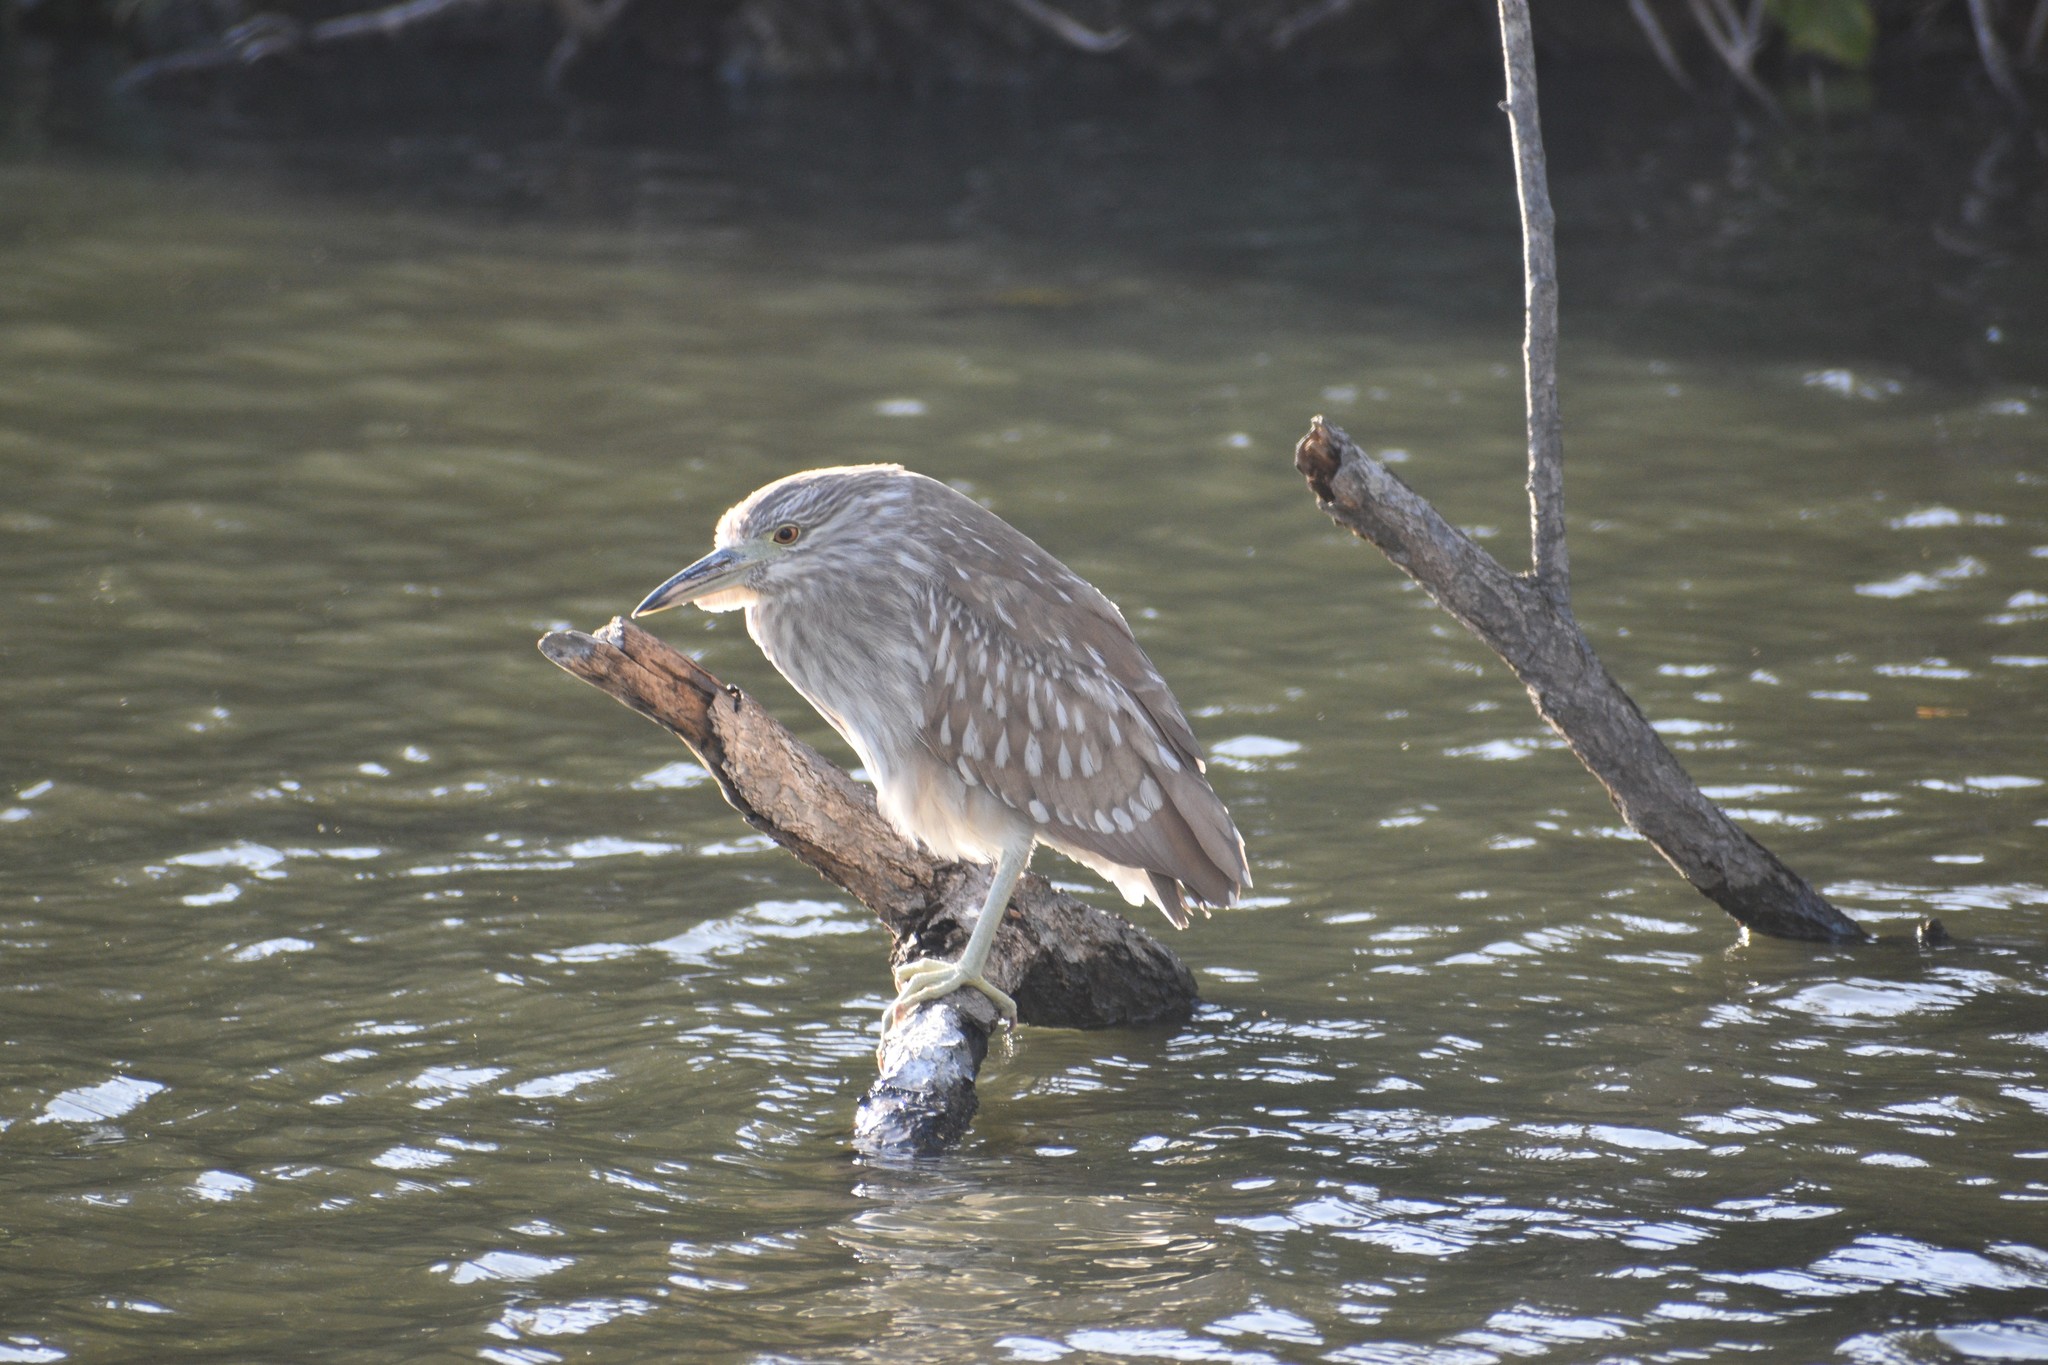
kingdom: Animalia
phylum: Chordata
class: Aves
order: Pelecaniformes
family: Ardeidae
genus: Nycticorax
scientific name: Nycticorax nycticorax
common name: Black-crowned night heron
